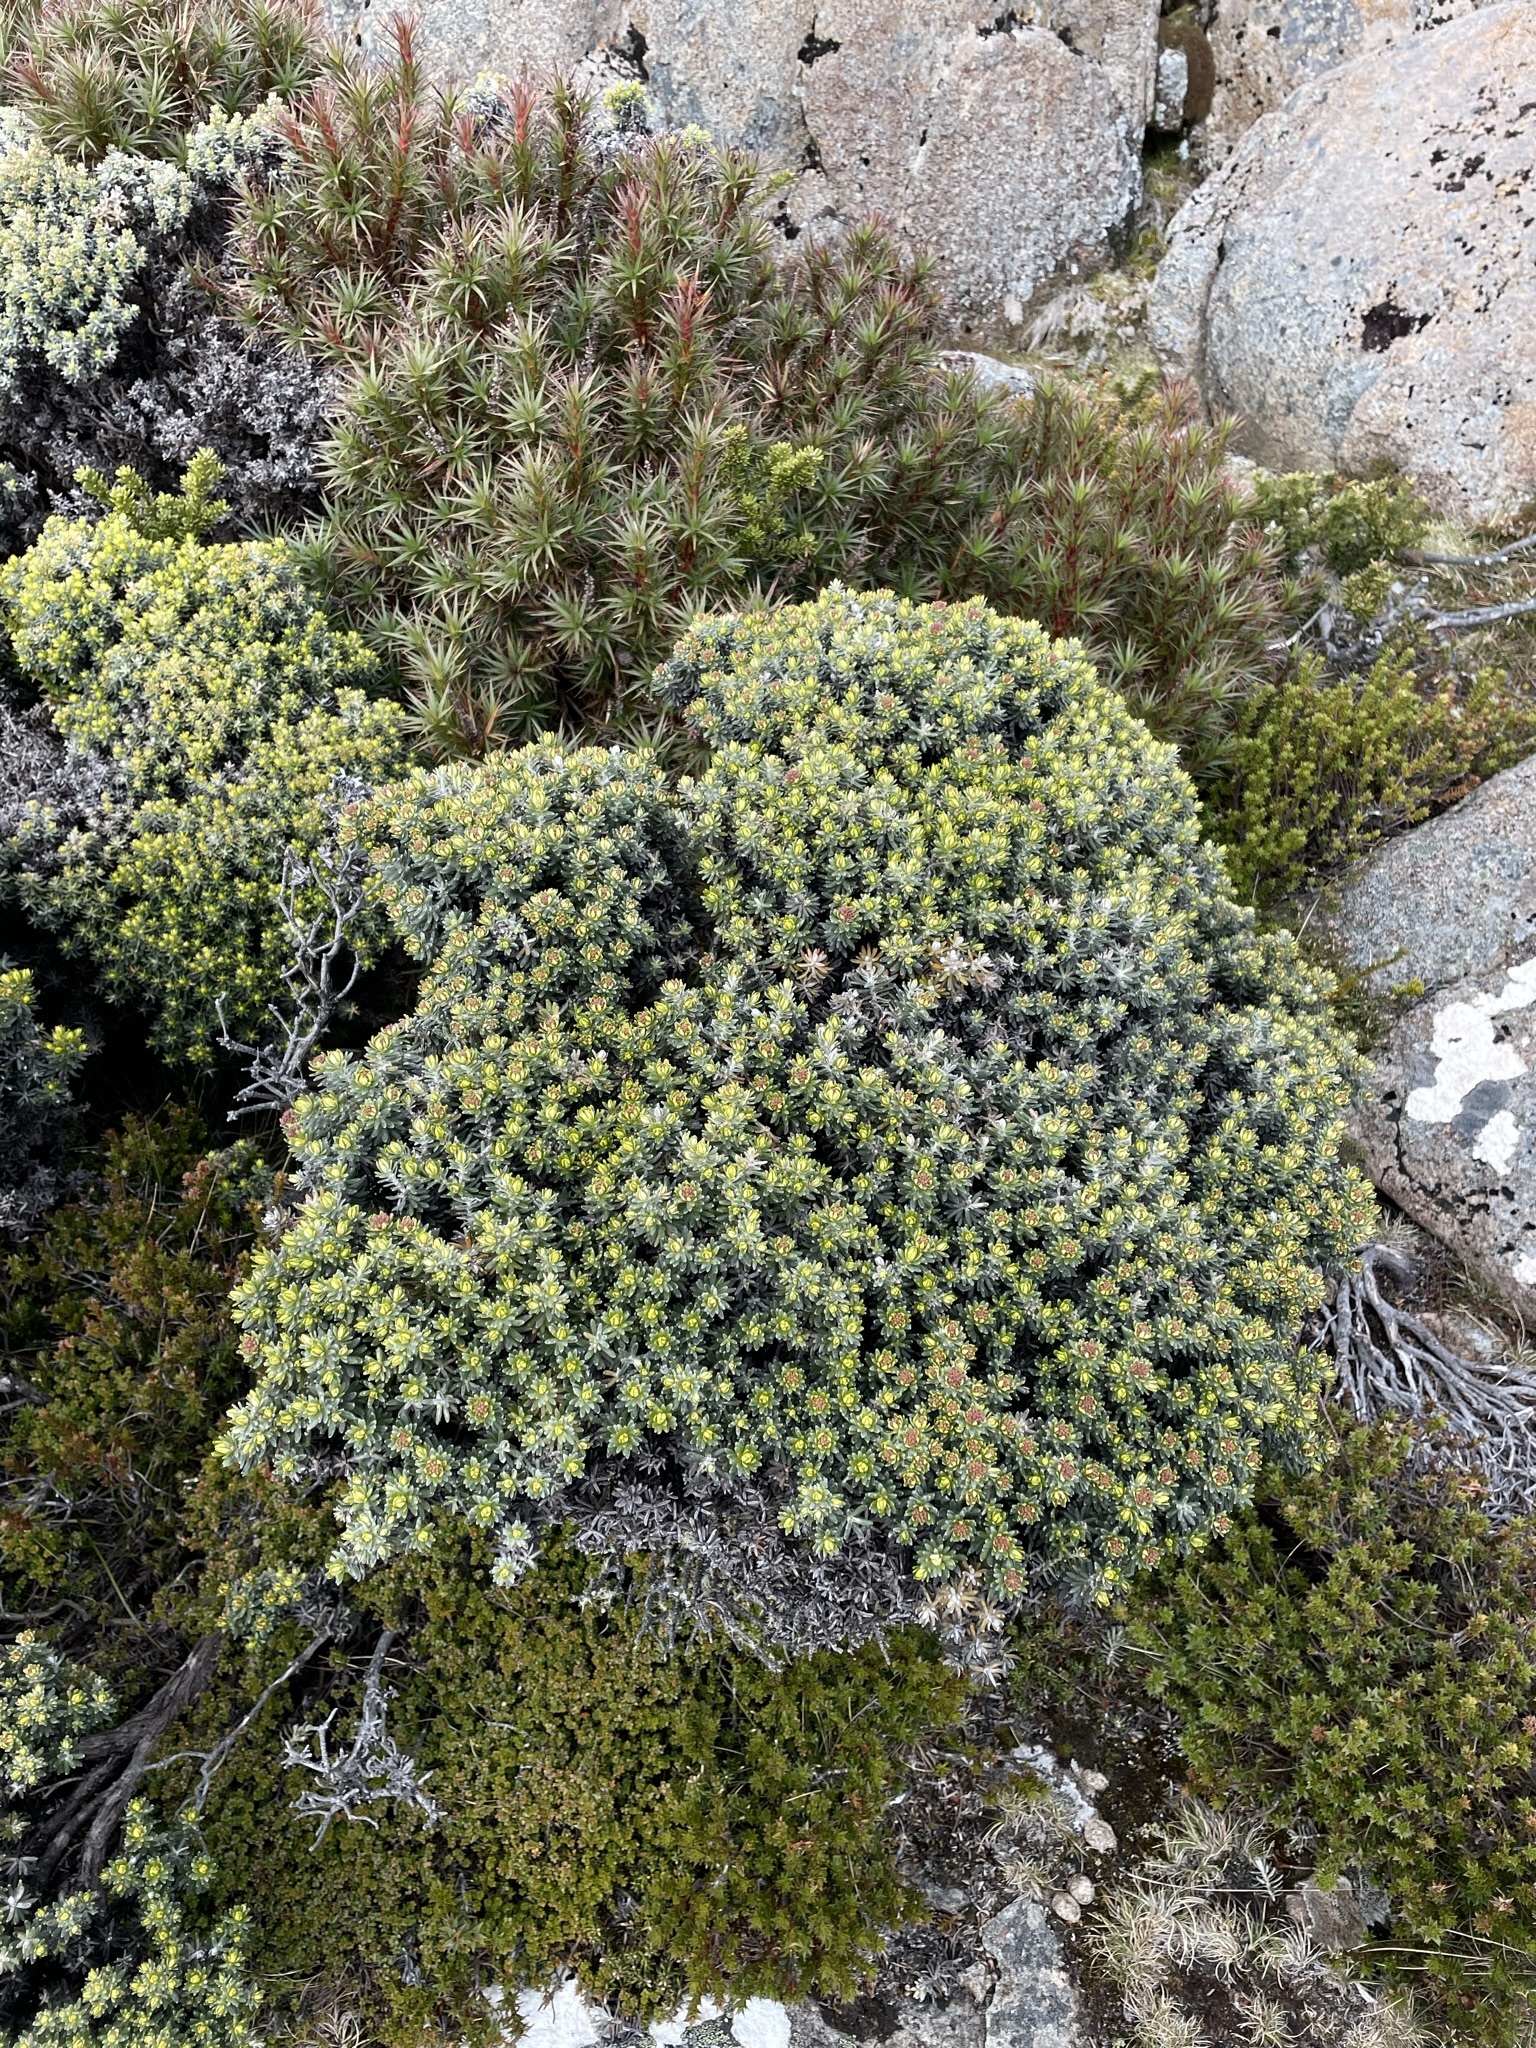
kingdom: Plantae
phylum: Tracheophyta
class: Magnoliopsida
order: Asterales
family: Asteraceae
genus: Ozothamnus
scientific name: Ozothamnus ledifolius
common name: Kerosene-weed
